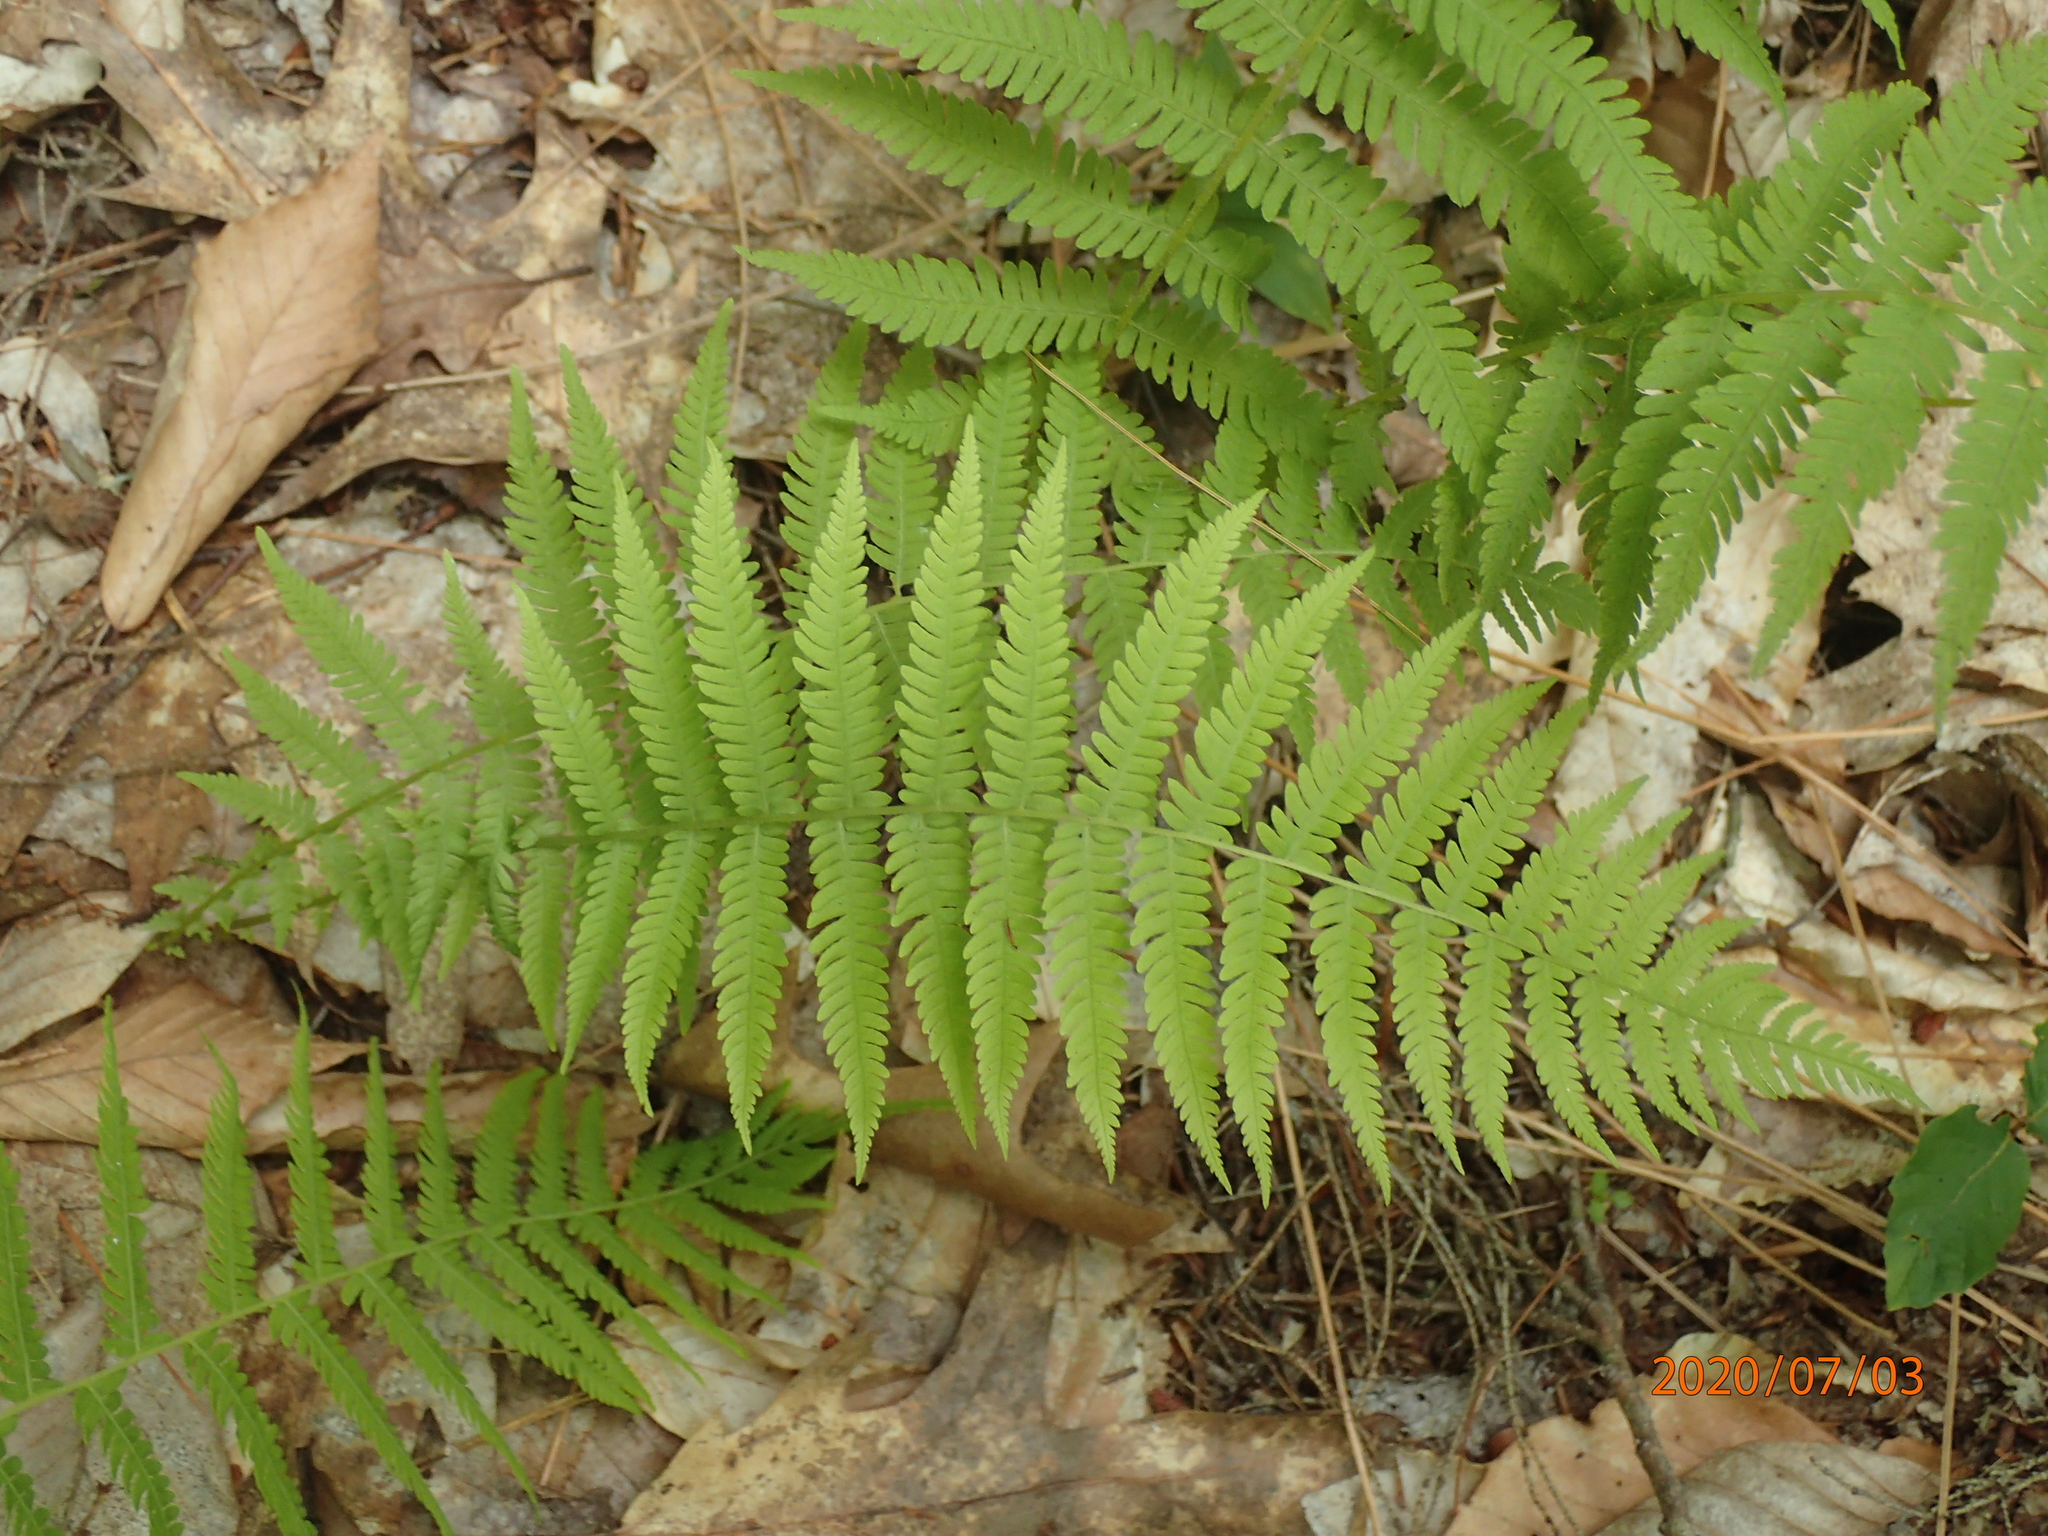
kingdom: Plantae
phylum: Tracheophyta
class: Polypodiopsida
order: Polypodiales
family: Thelypteridaceae
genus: Amauropelta
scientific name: Amauropelta noveboracensis
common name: New york fern
